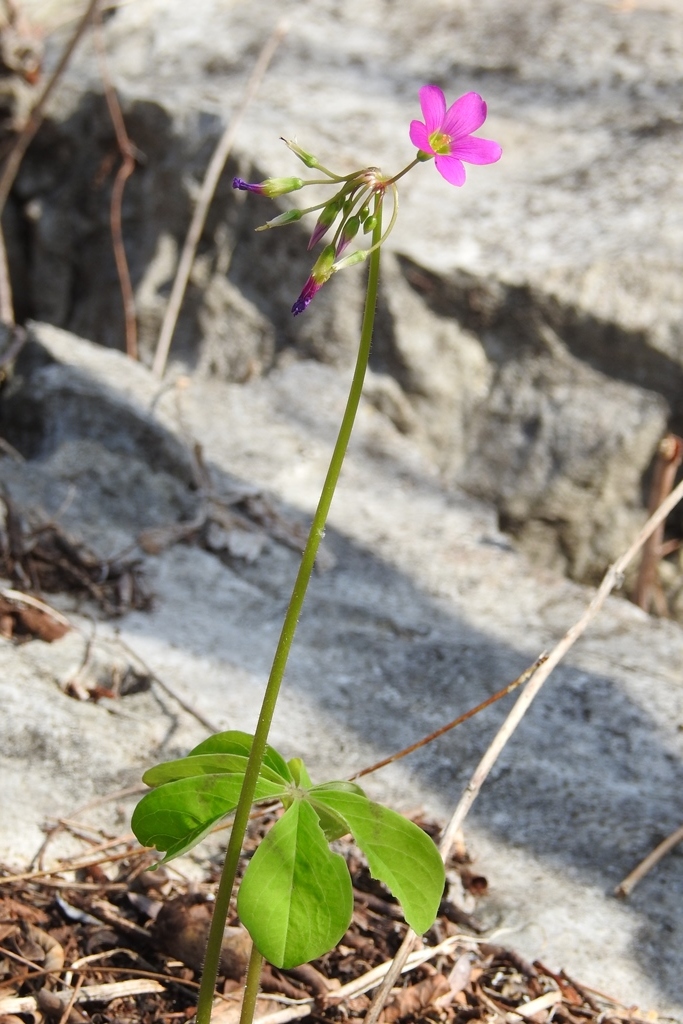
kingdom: Plantae
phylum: Tracheophyta
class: Magnoliopsida
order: Oxalidales
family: Oxalidaceae
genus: Oxalis
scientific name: Oxalis nelsonii
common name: Sorrel
